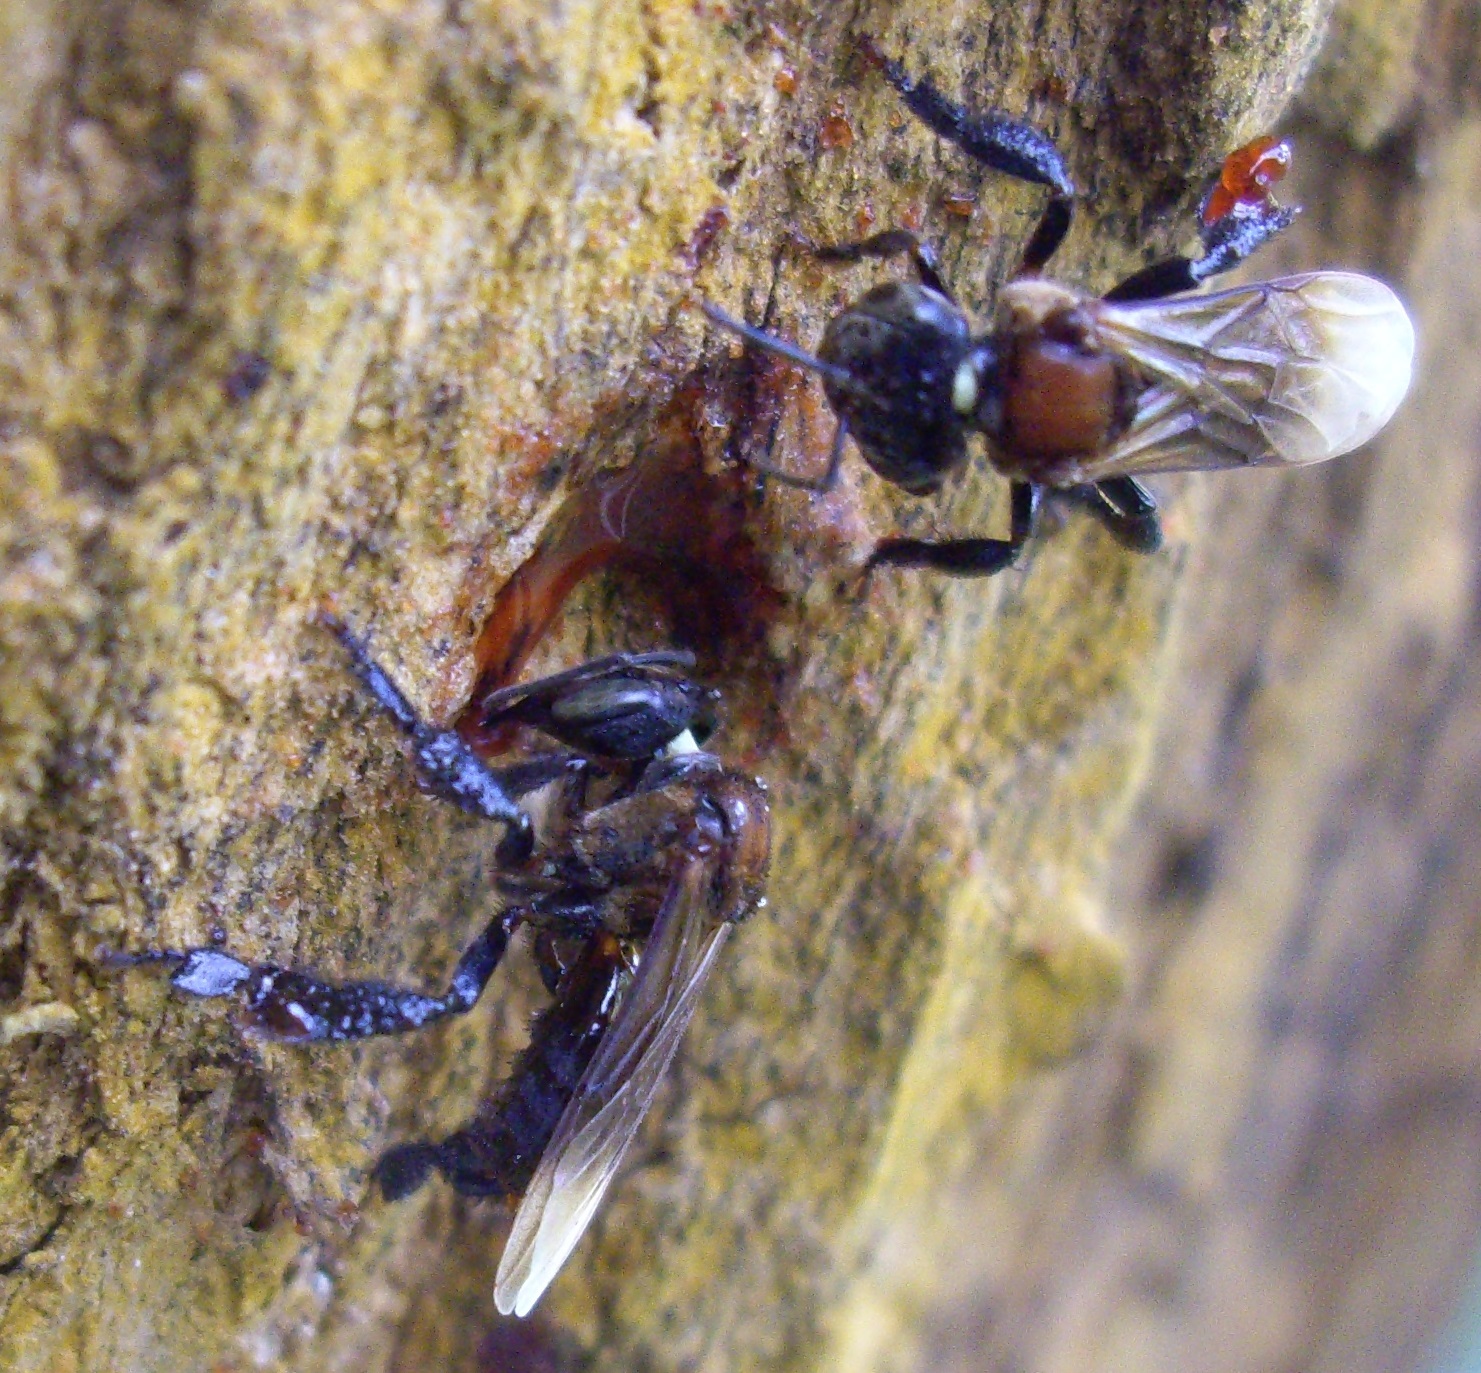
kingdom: Animalia
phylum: Arthropoda
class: Insecta
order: Hymenoptera
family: Apidae
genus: Geniotrigona
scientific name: Geniotrigona thoracica
